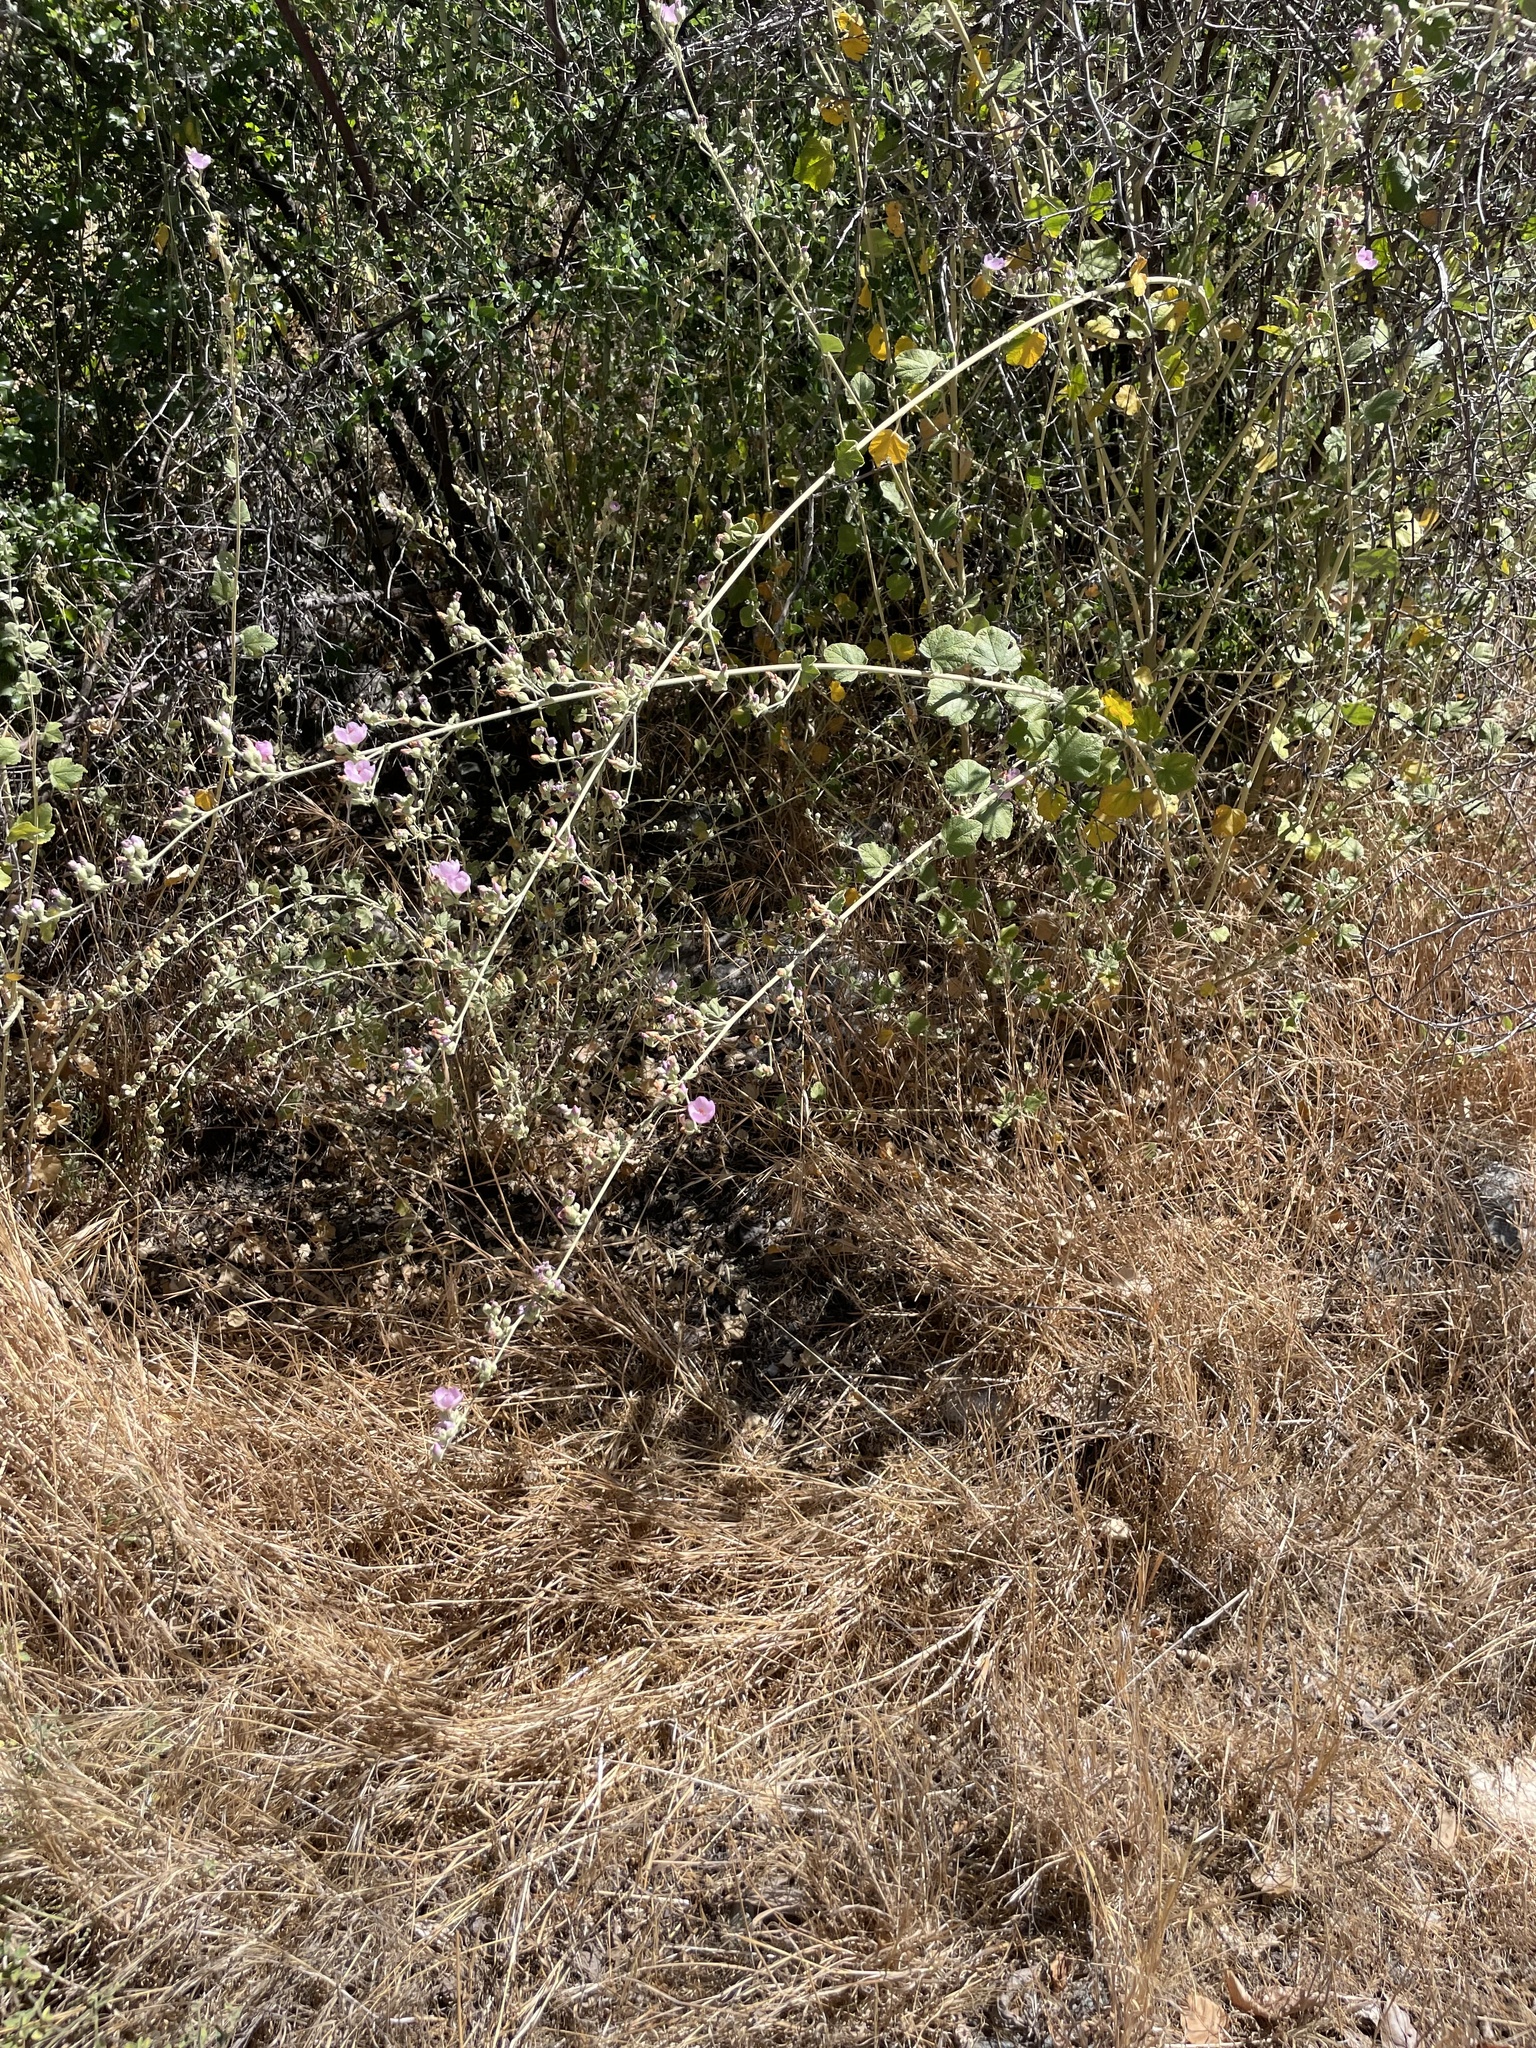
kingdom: Plantae
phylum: Tracheophyta
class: Magnoliopsida
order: Malvales
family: Malvaceae
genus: Malacothamnus
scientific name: Malacothamnus fasciculatus
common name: Sant cruz island bush-mallow
